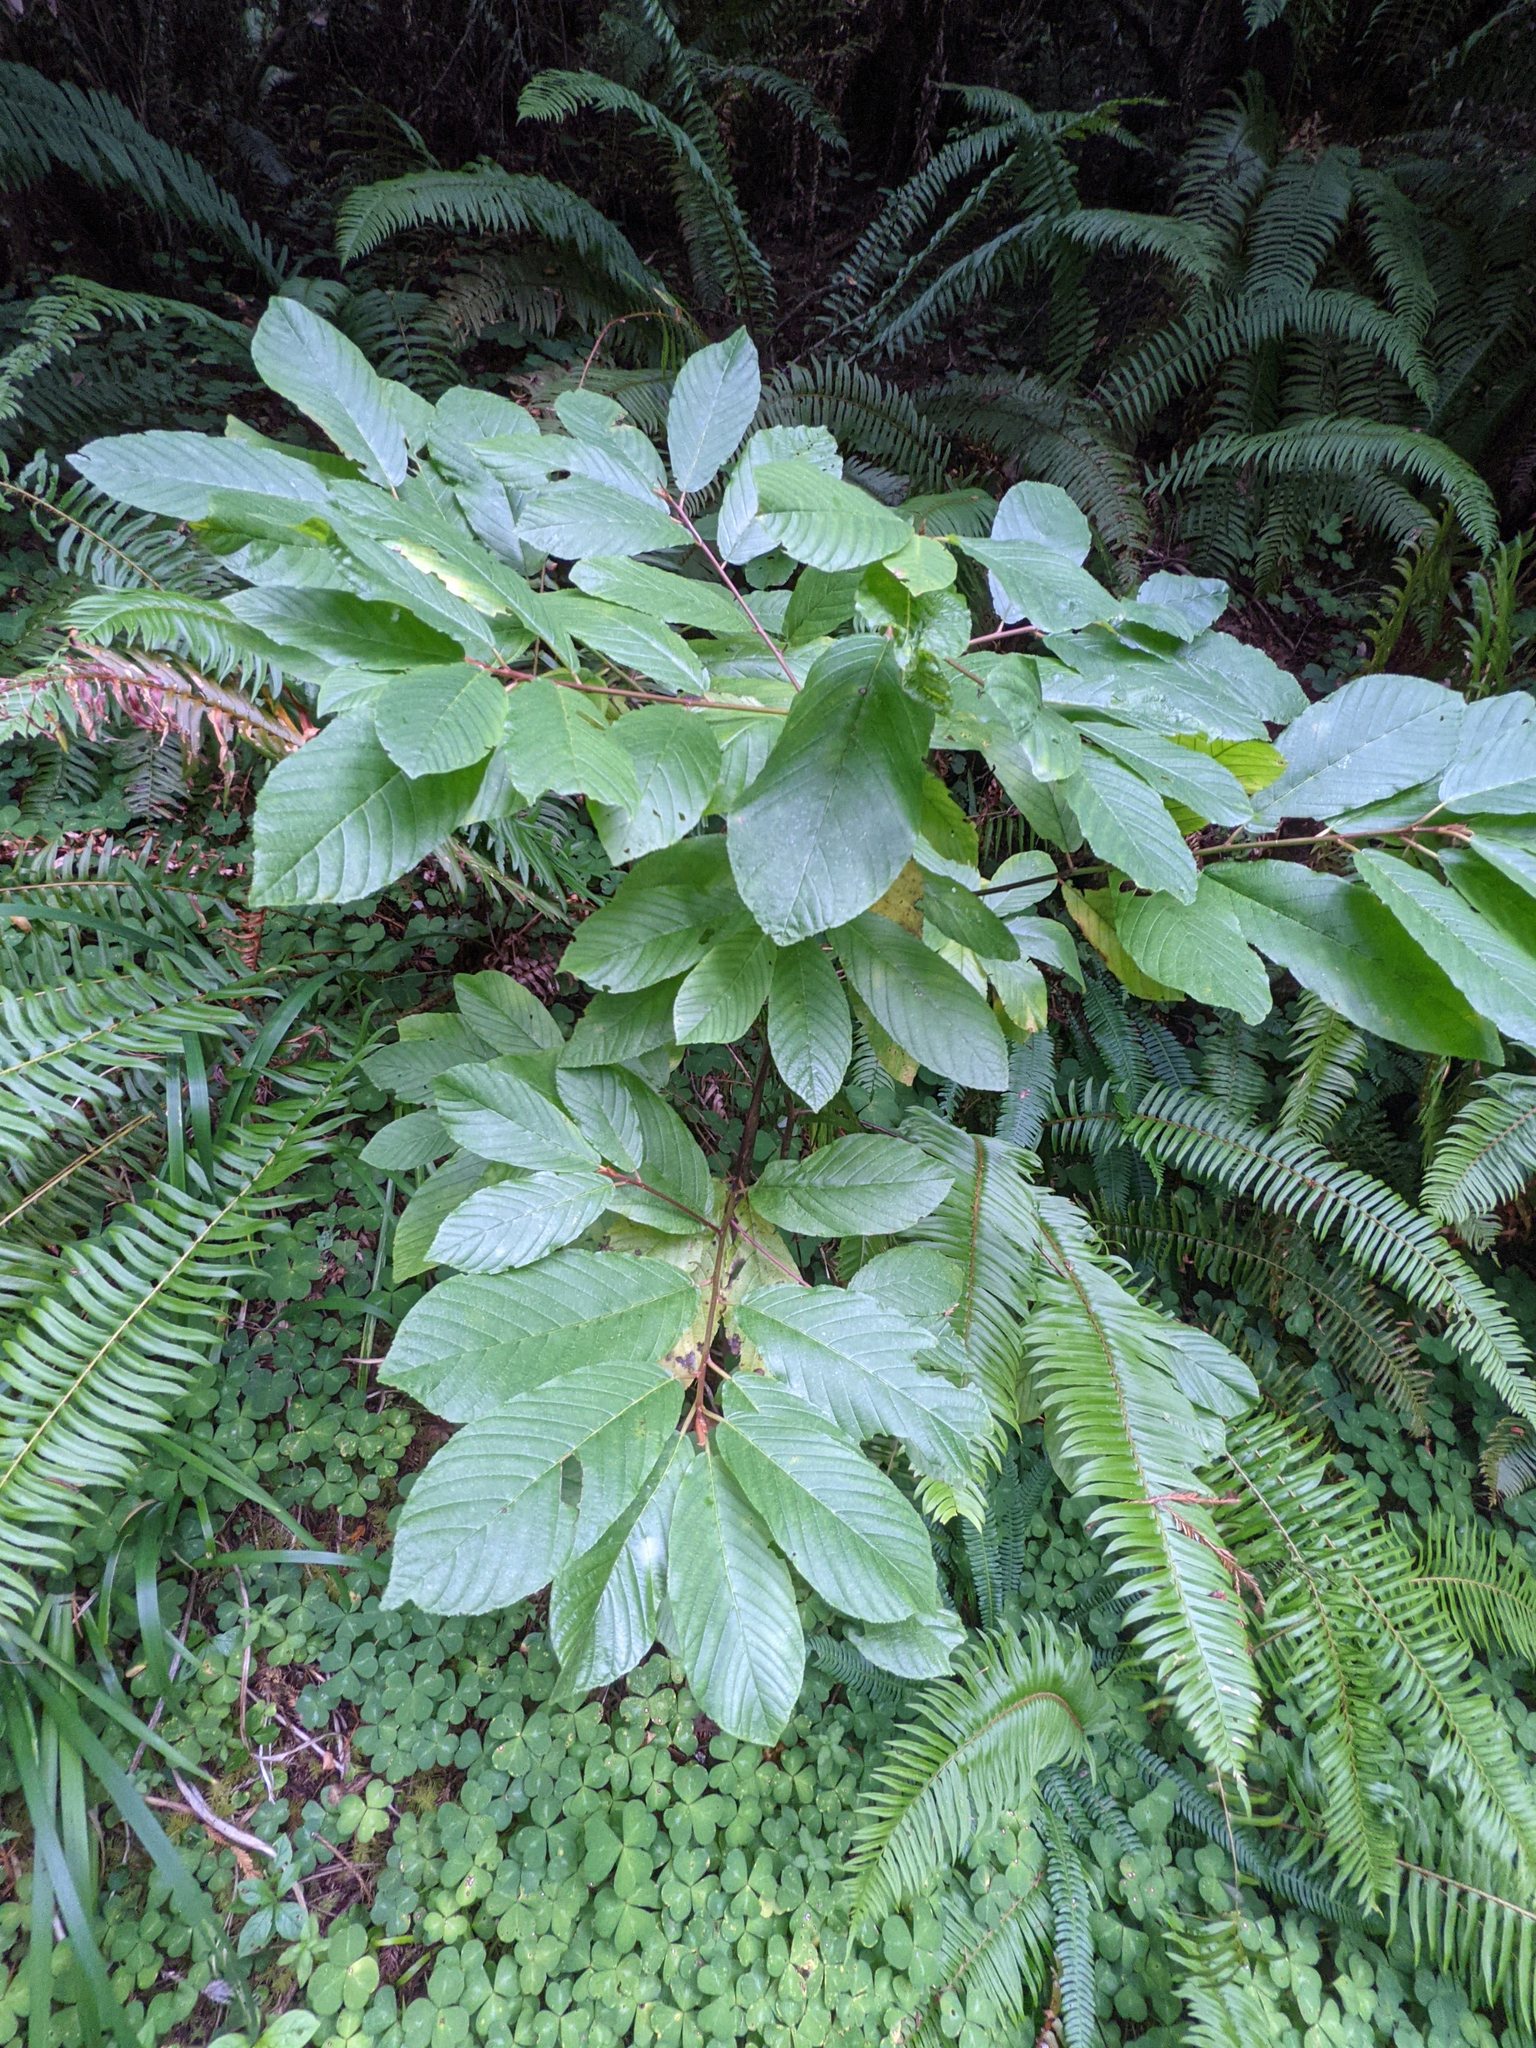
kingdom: Plantae
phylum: Tracheophyta
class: Magnoliopsida
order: Rosales
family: Rhamnaceae
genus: Frangula
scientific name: Frangula purshiana
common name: Cascara buckthorn
